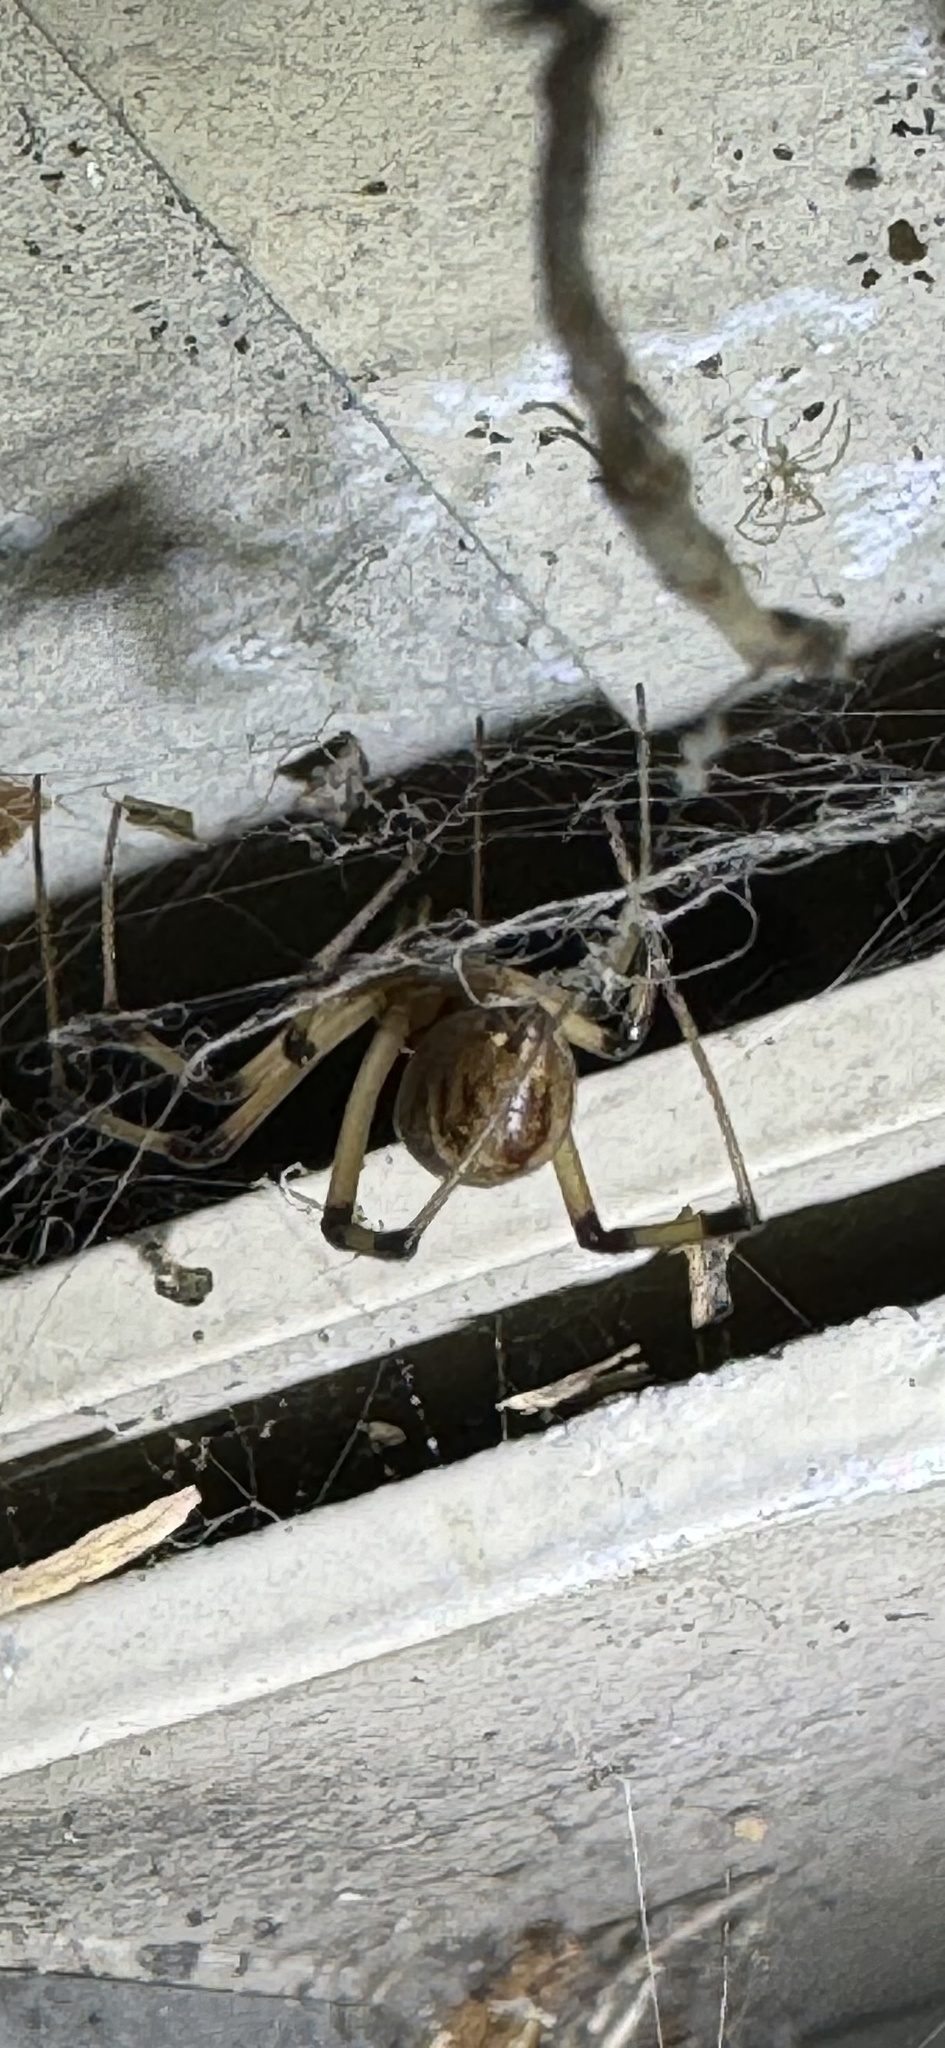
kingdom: Animalia
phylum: Arthropoda
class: Arachnida
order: Araneae
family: Theridiidae
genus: Latrodectus
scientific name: Latrodectus geometricus
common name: Brown widow spider
